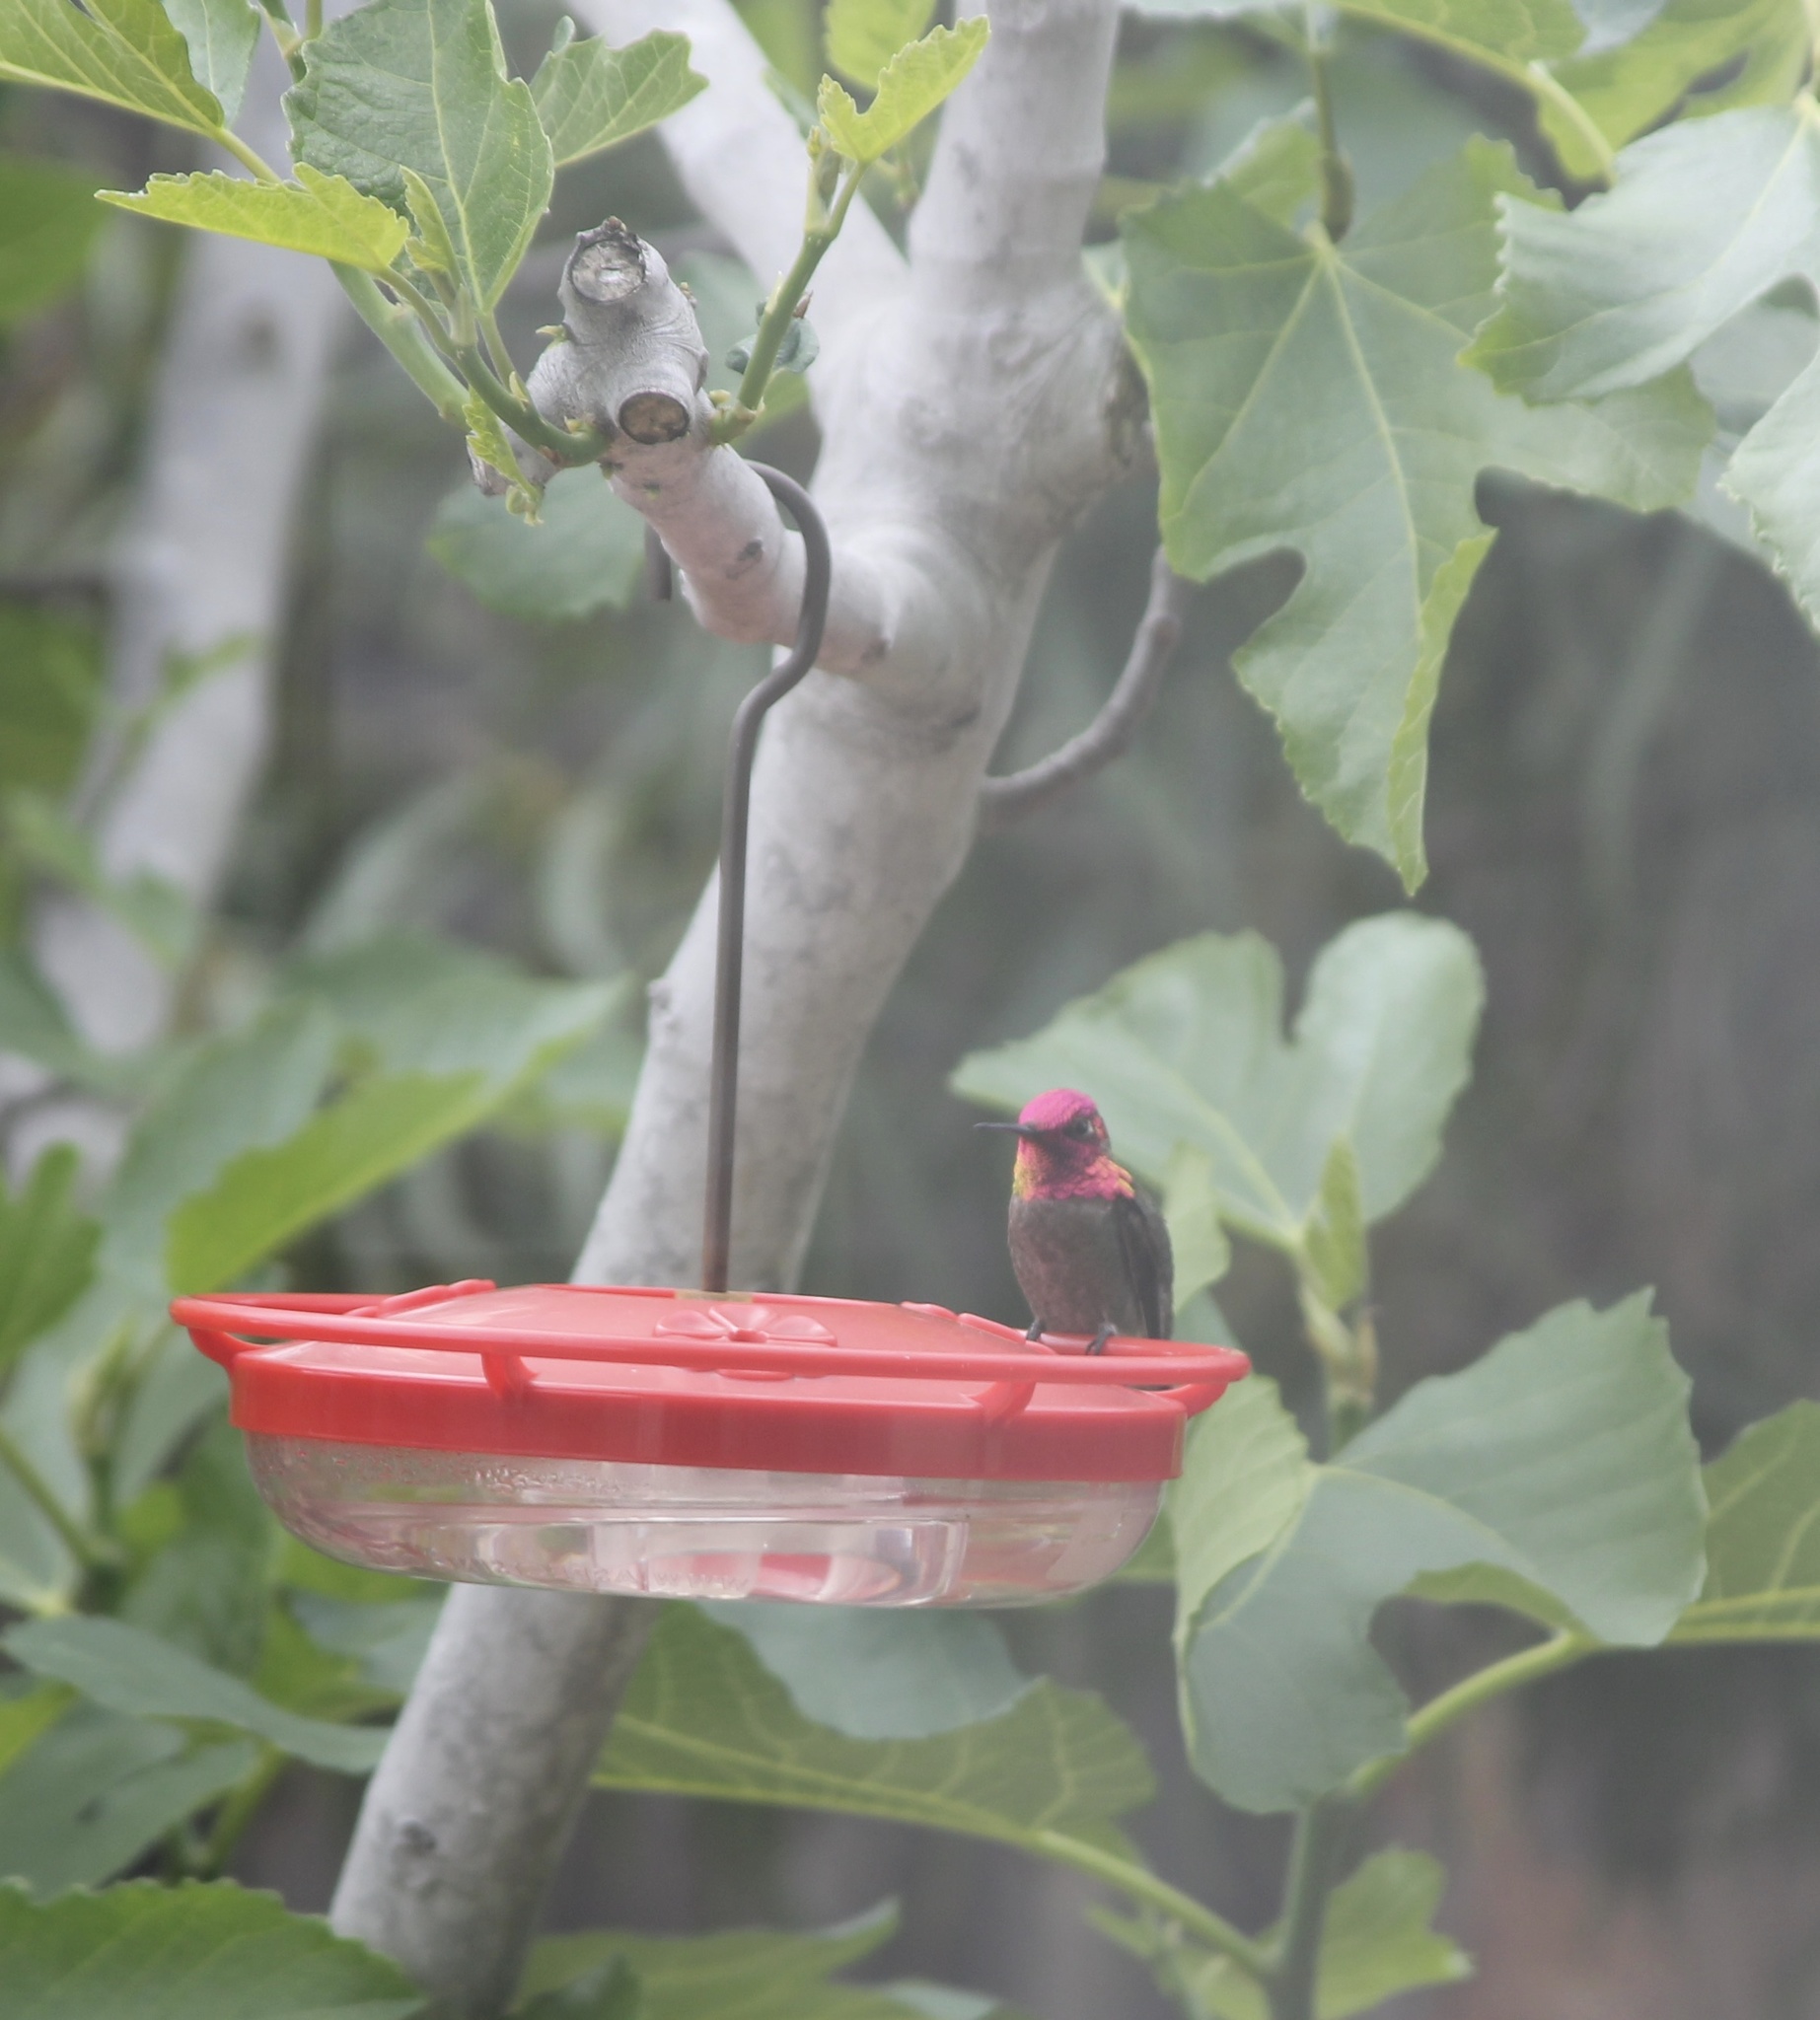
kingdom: Animalia
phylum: Chordata
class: Aves
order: Apodiformes
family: Trochilidae
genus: Calypte
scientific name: Calypte anna
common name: Anna's hummingbird
